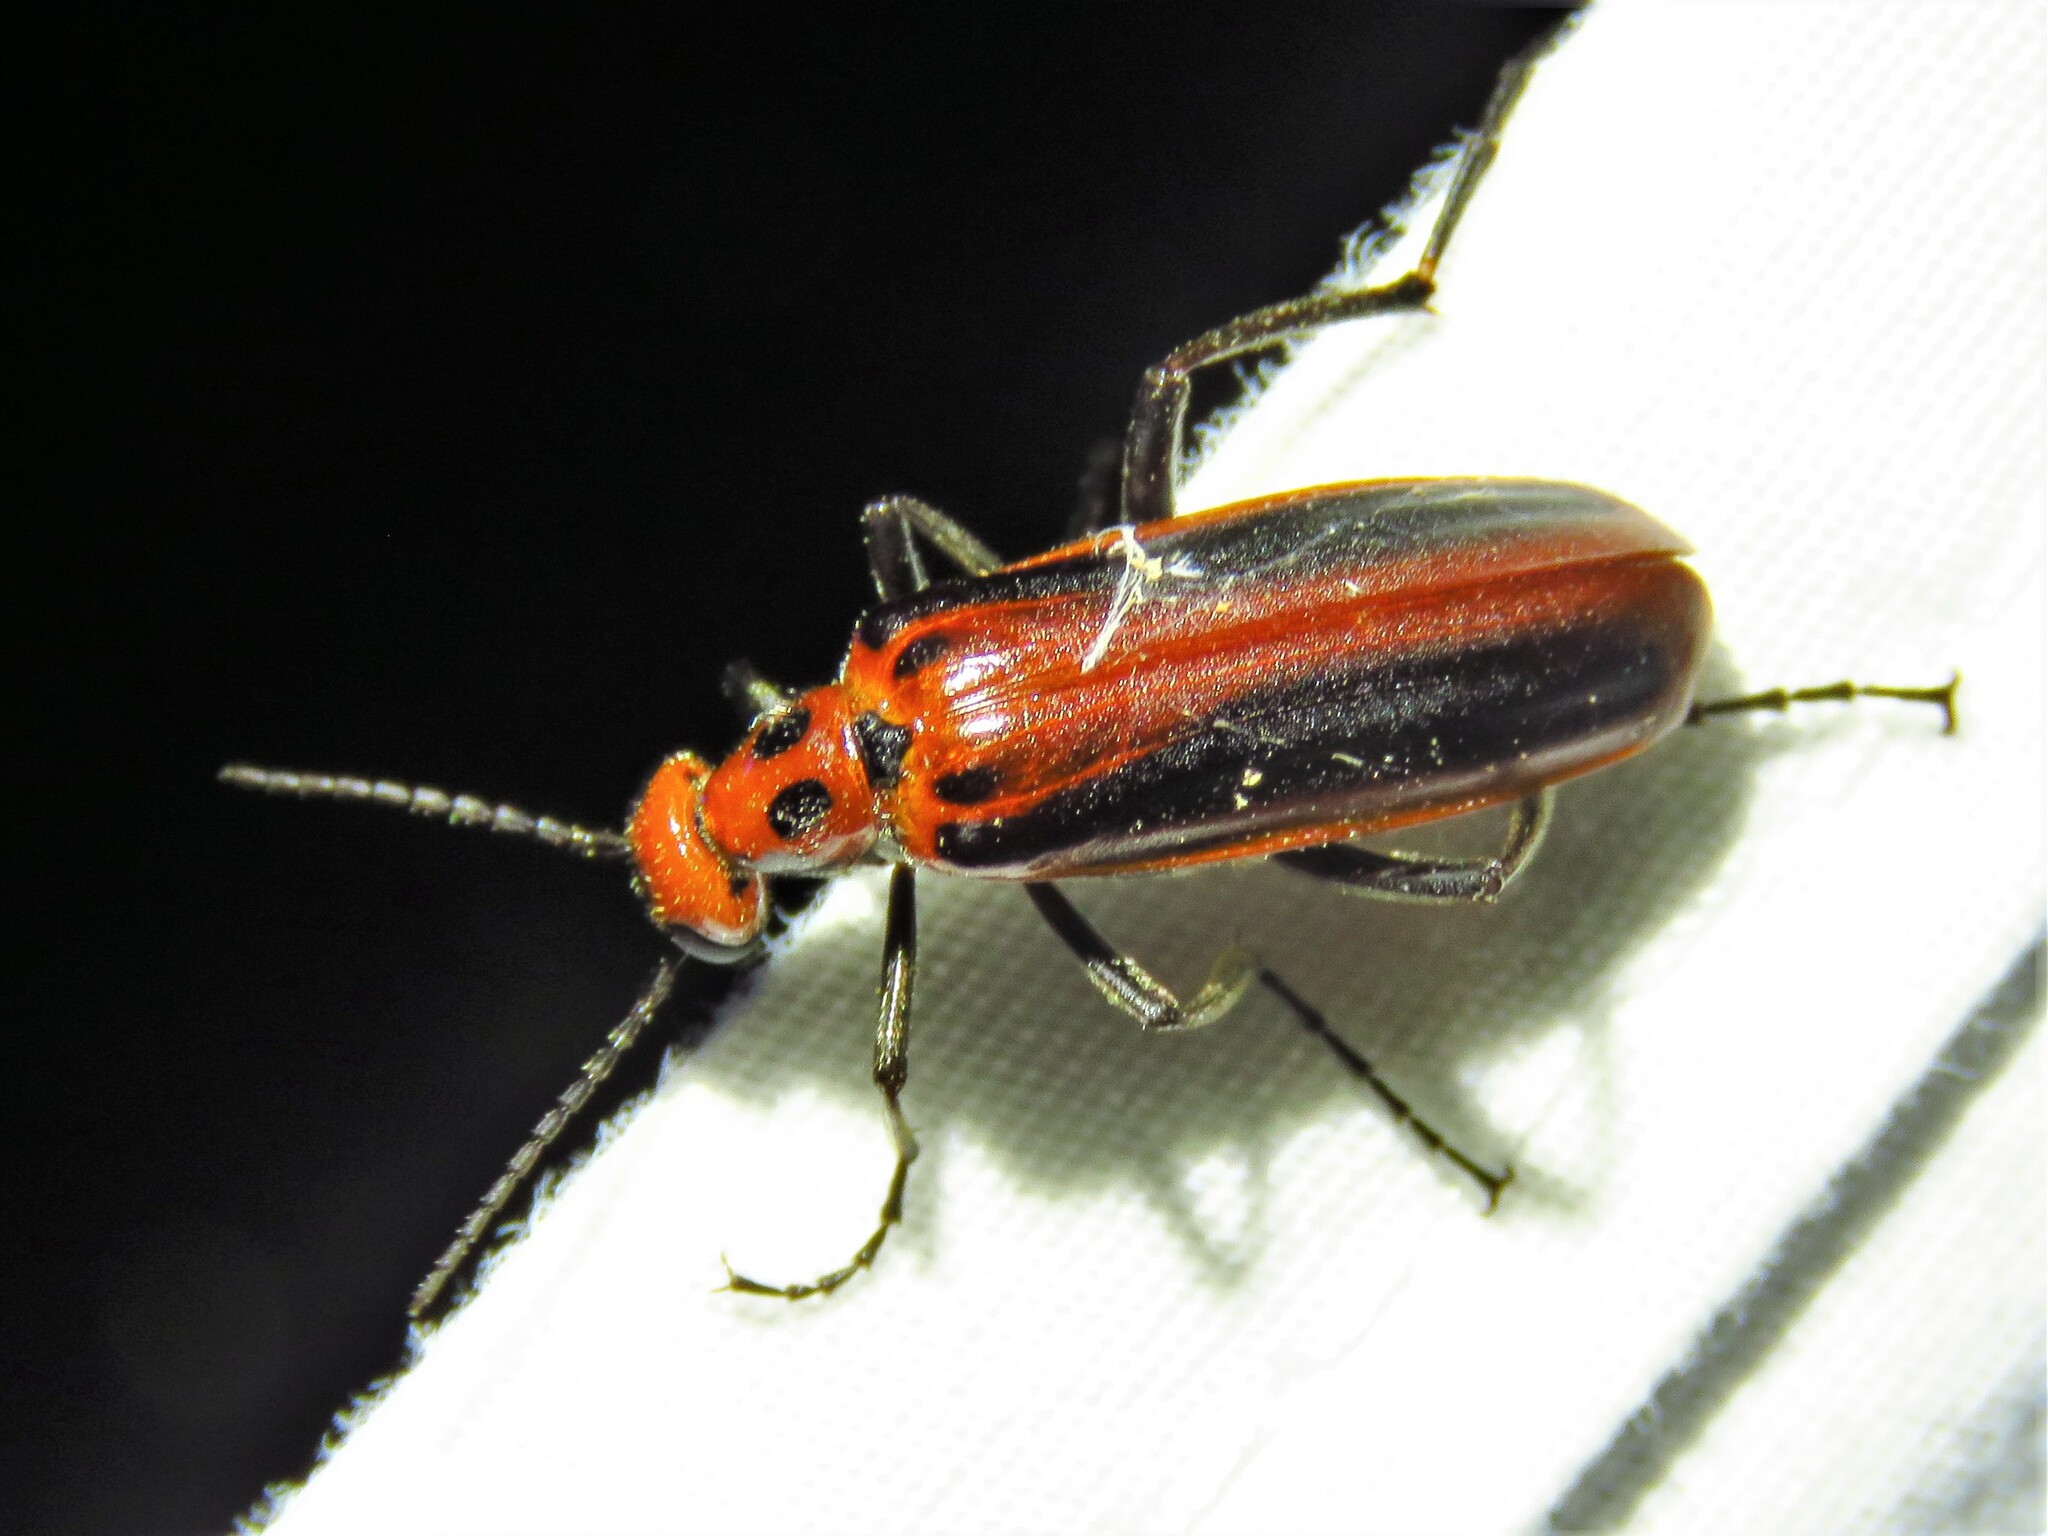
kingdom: Animalia
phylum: Arthropoda
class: Insecta
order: Coleoptera
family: Meloidae
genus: Pyrota
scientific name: Pyrota tenuicostatis
